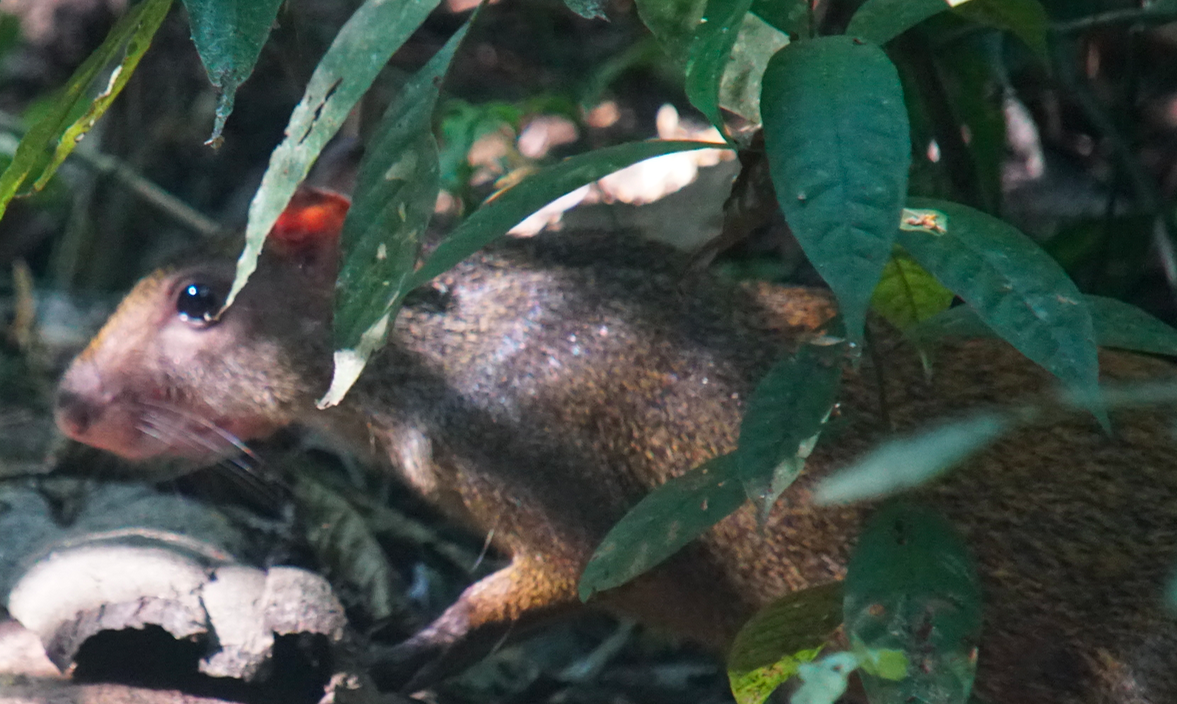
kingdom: Animalia
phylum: Chordata
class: Mammalia
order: Rodentia
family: Dasyproctidae
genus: Dasyprocta
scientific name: Dasyprocta punctata
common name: Central american agouti
